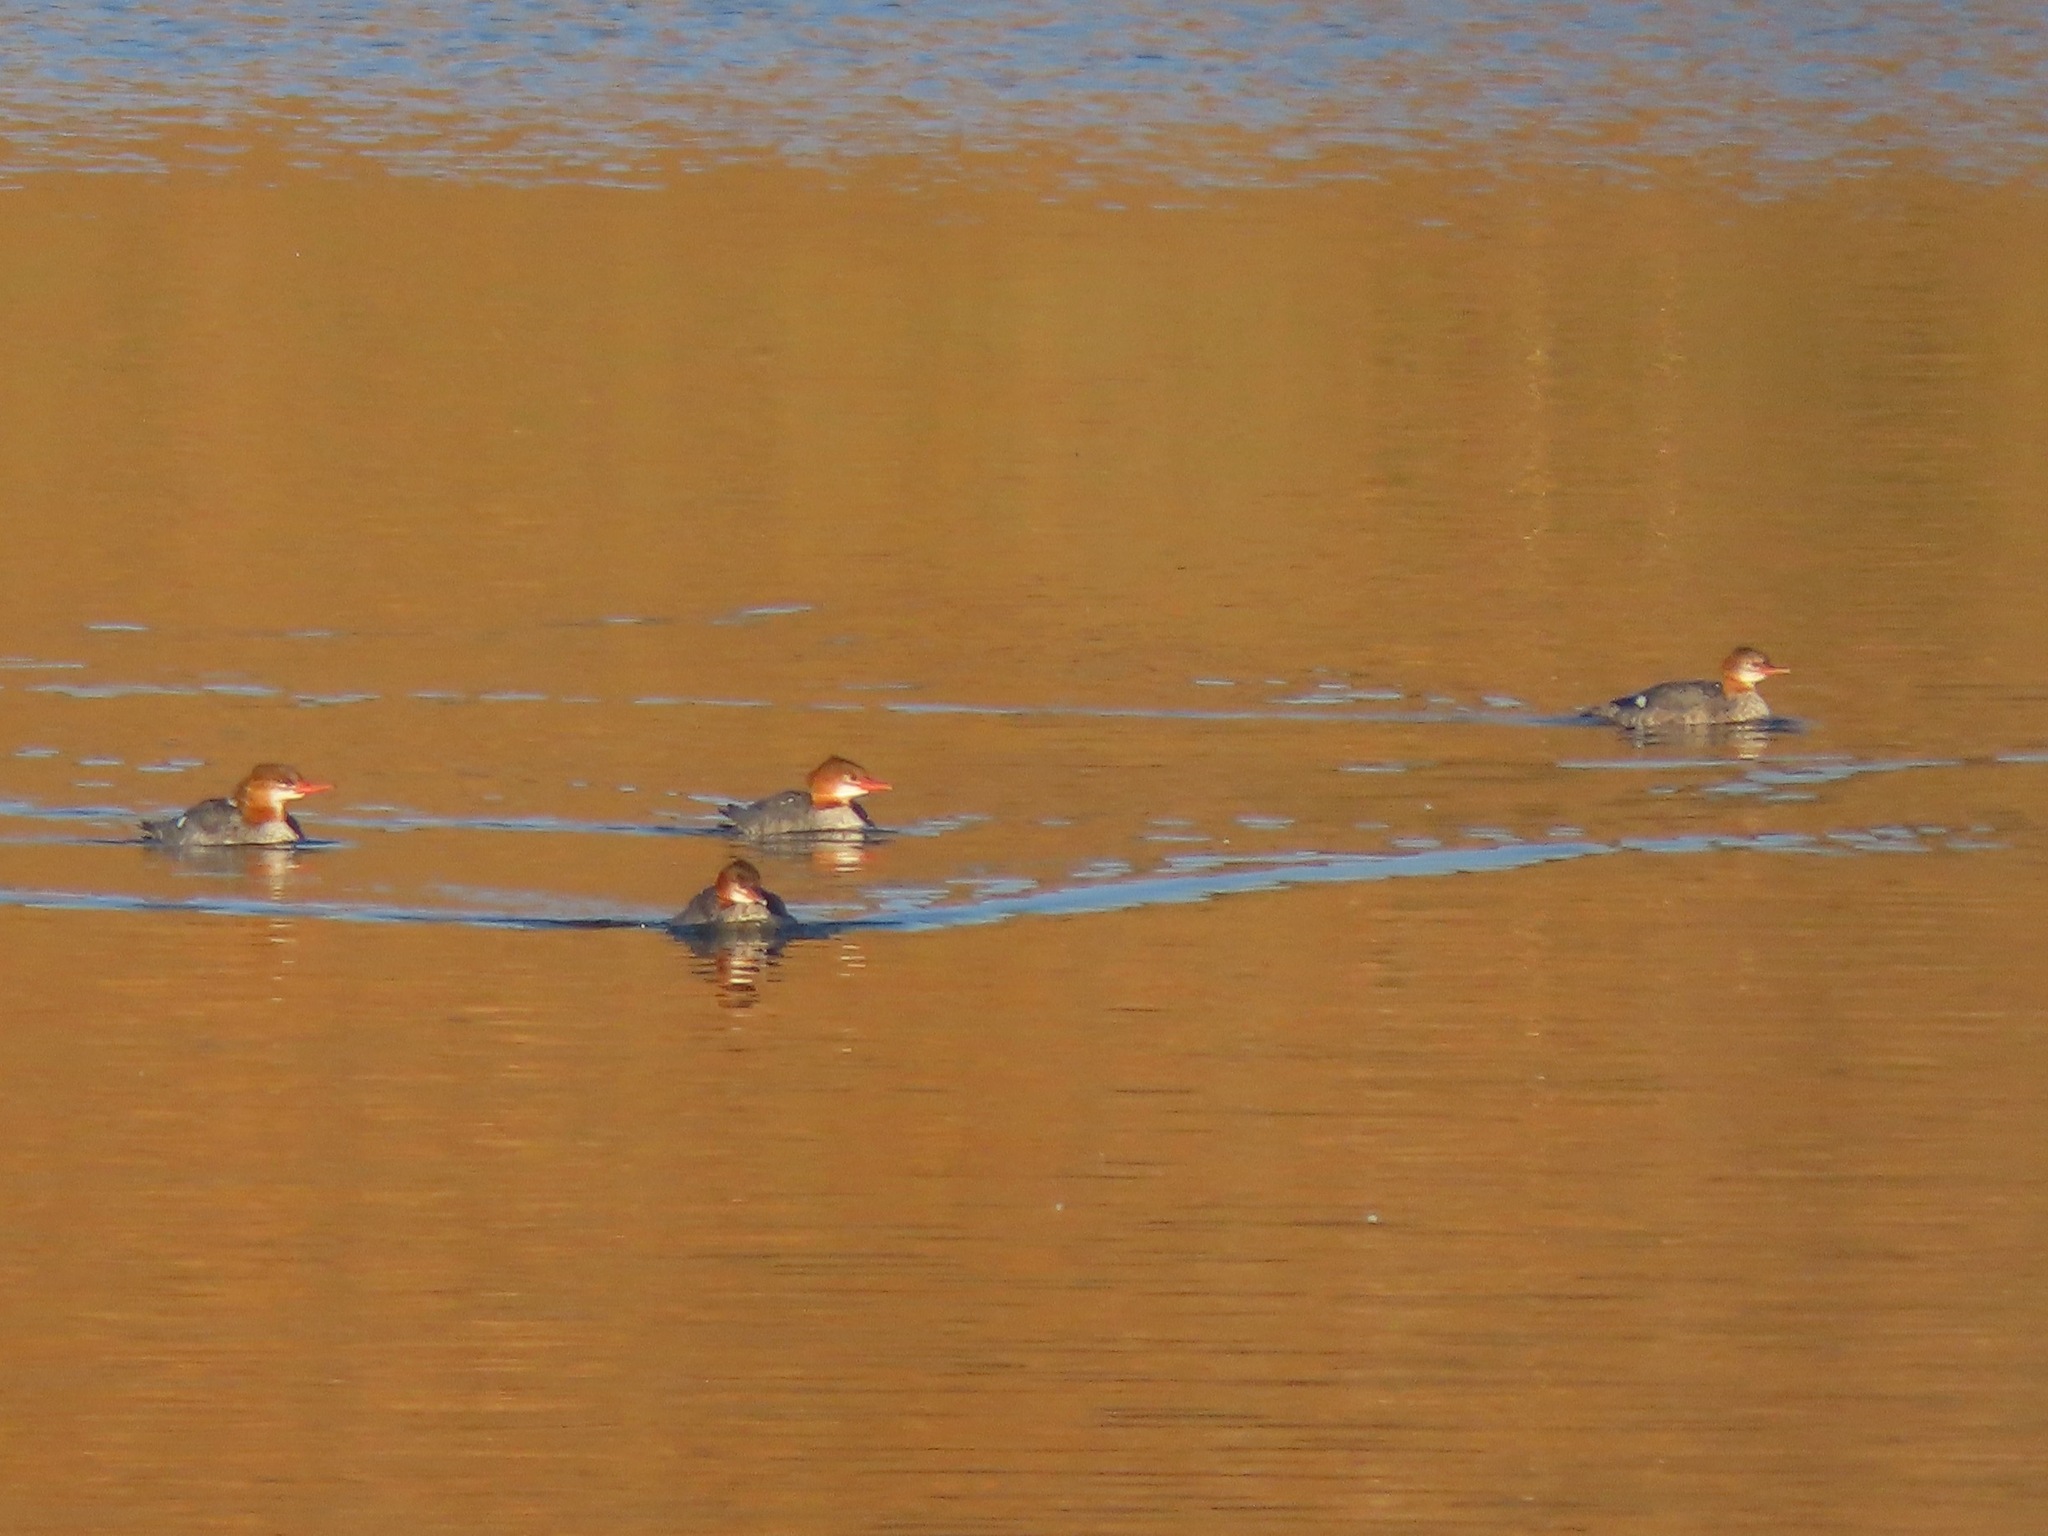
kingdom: Animalia
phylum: Chordata
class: Aves
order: Anseriformes
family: Anatidae
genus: Mergus
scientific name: Mergus merganser
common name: Common merganser
